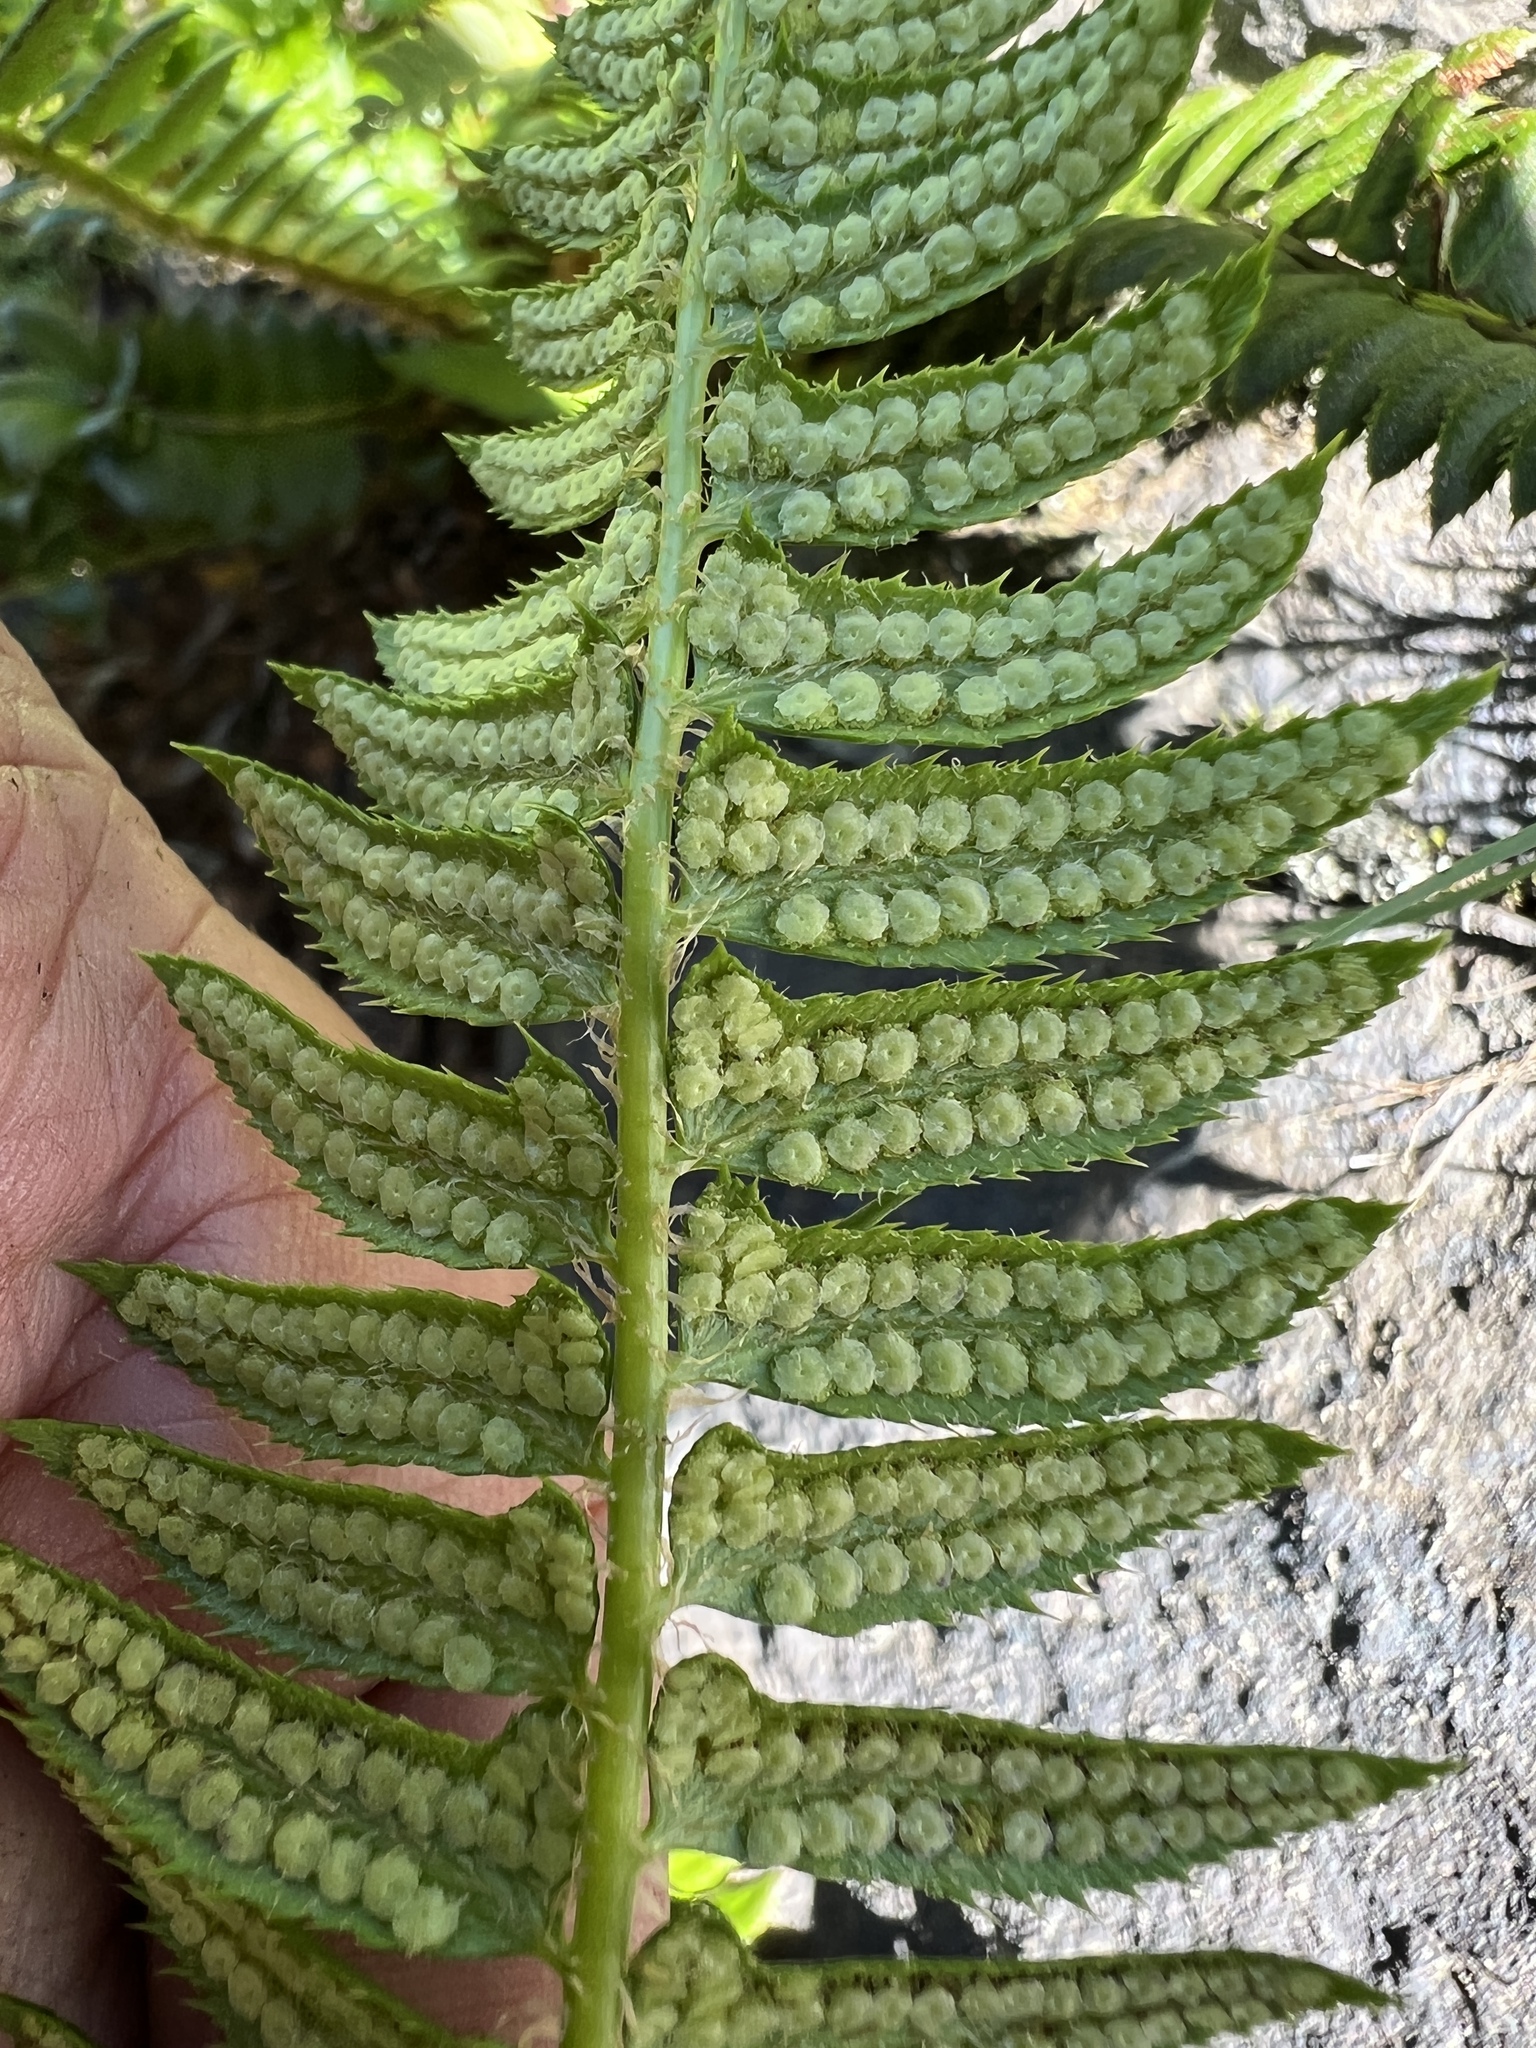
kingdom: Plantae
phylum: Tracheophyta
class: Polypodiopsida
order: Polypodiales
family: Dryopteridaceae
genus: Polystichum
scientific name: Polystichum lonchitis
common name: Holly fern
